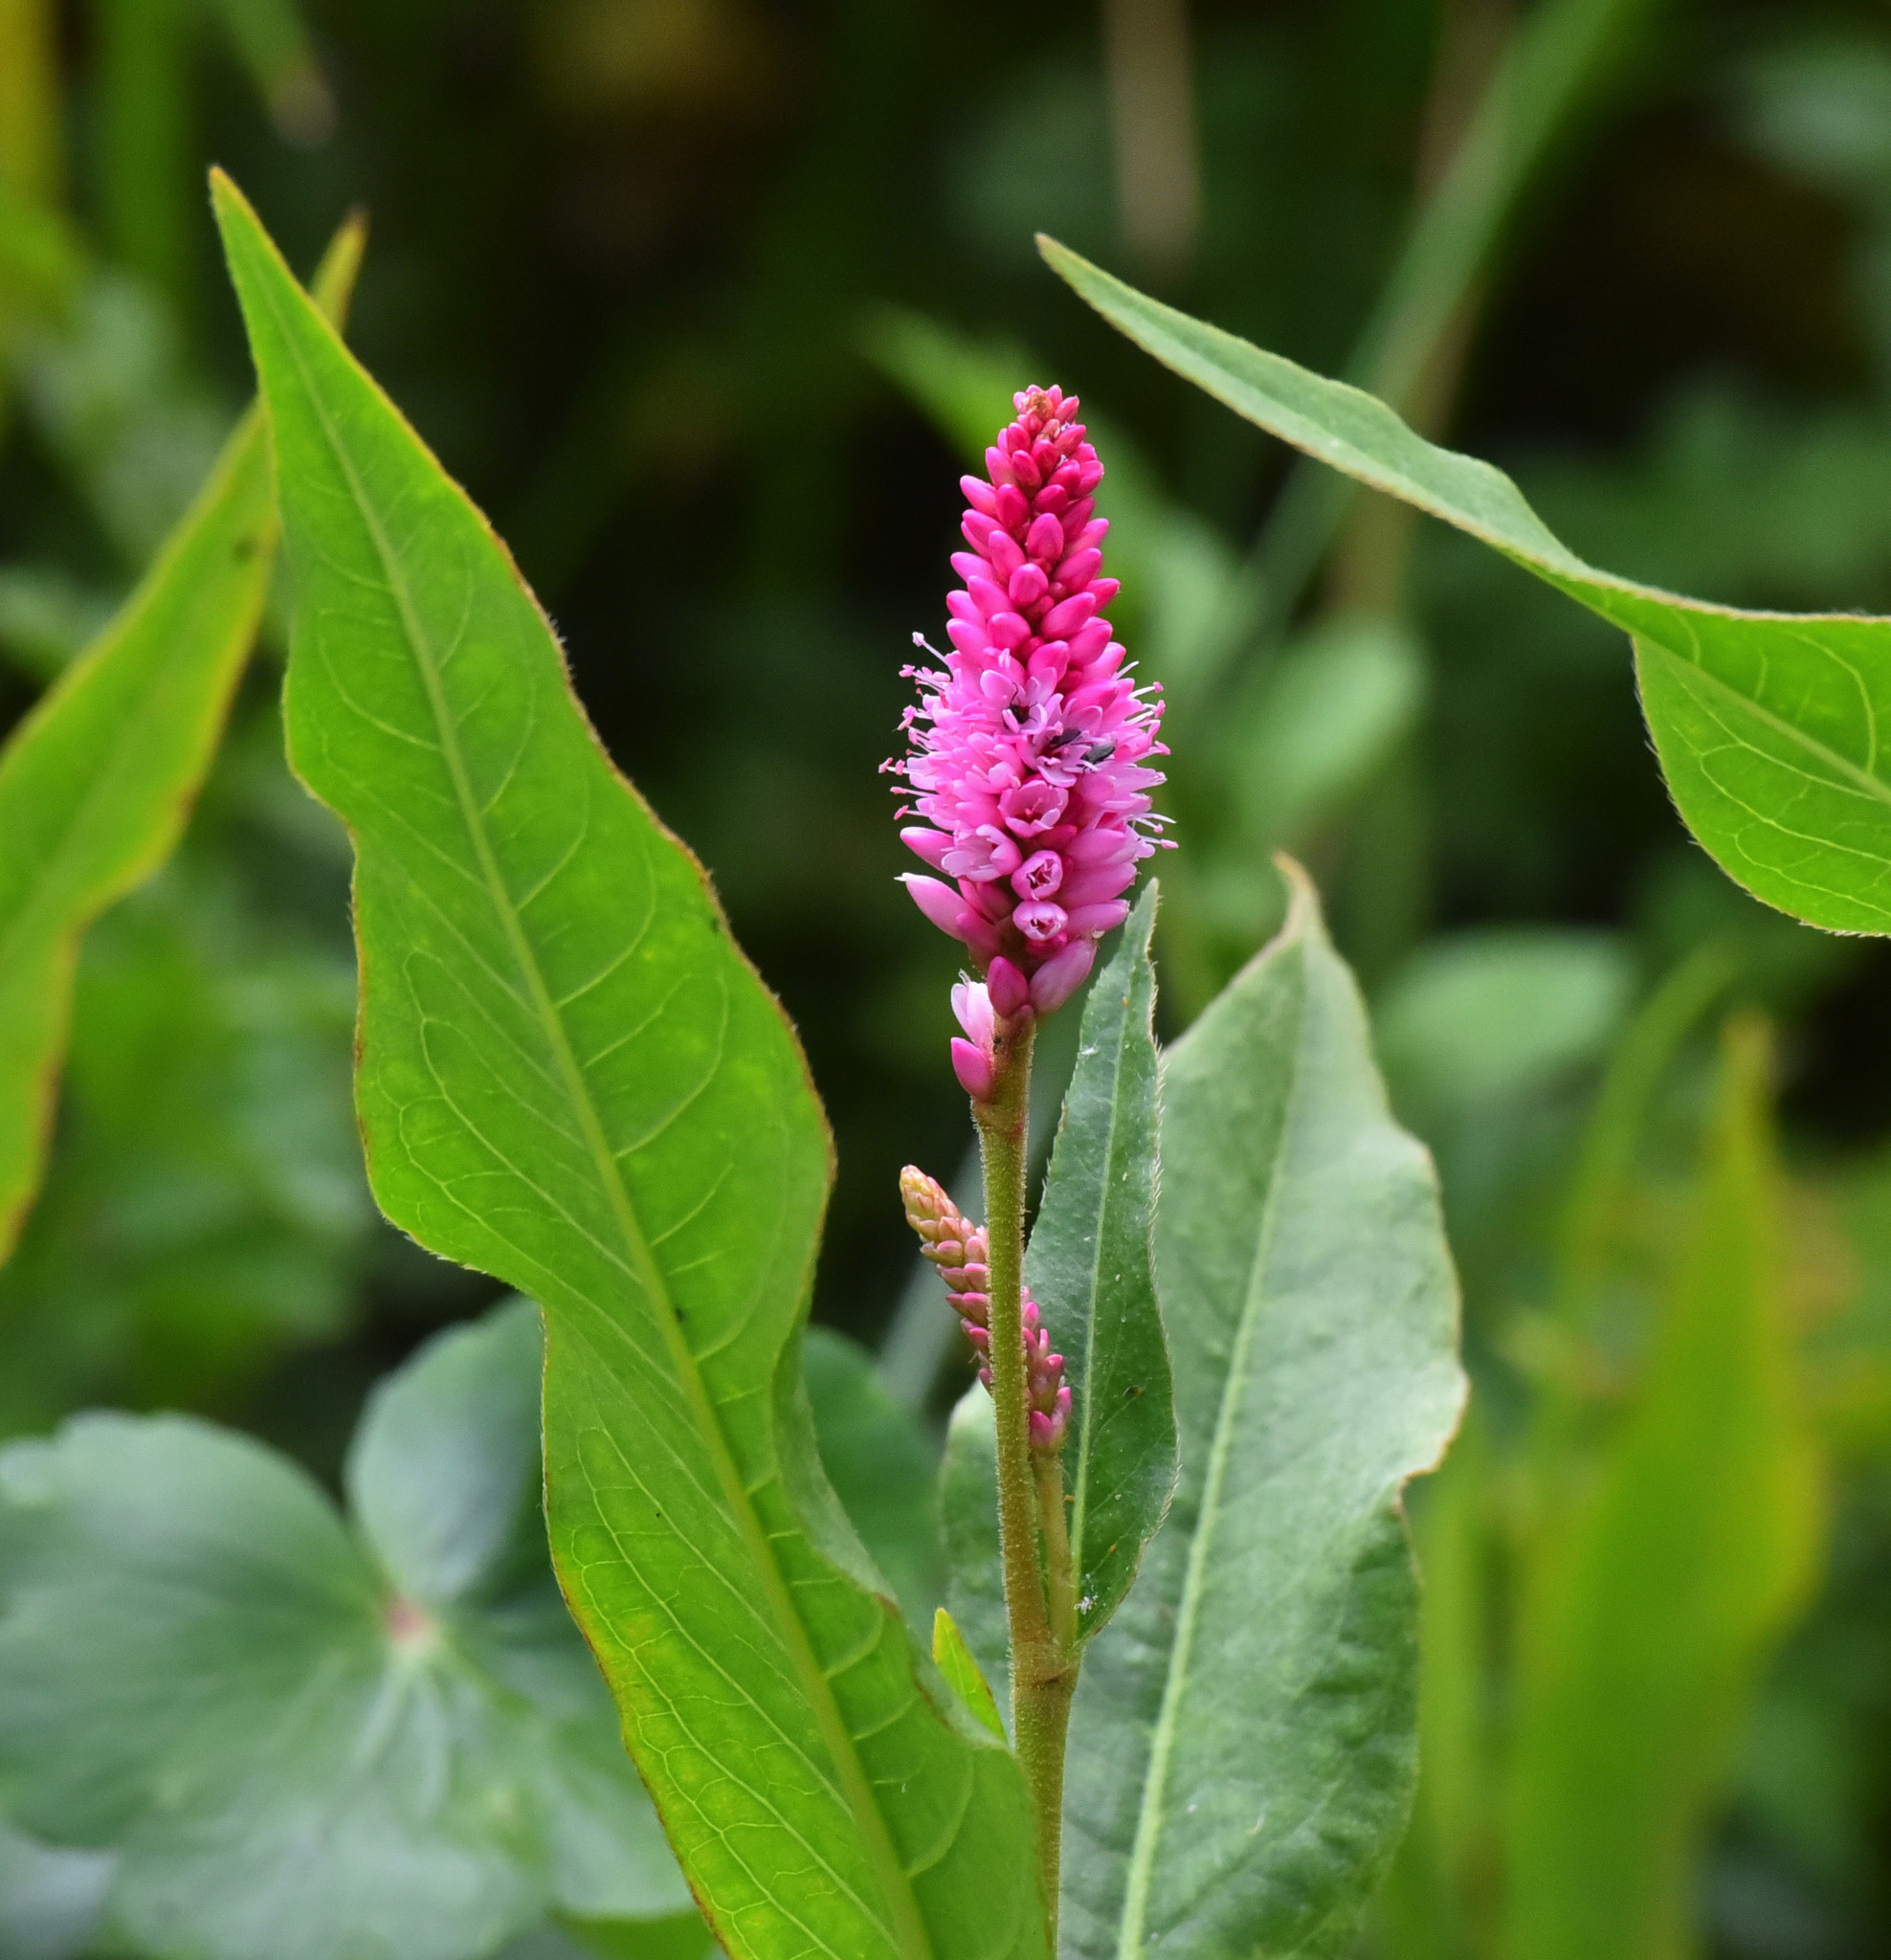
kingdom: Plantae
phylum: Tracheophyta
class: Magnoliopsida
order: Caryophyllales
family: Polygonaceae
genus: Persicaria
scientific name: Persicaria amphibia
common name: Amphibious bistort
